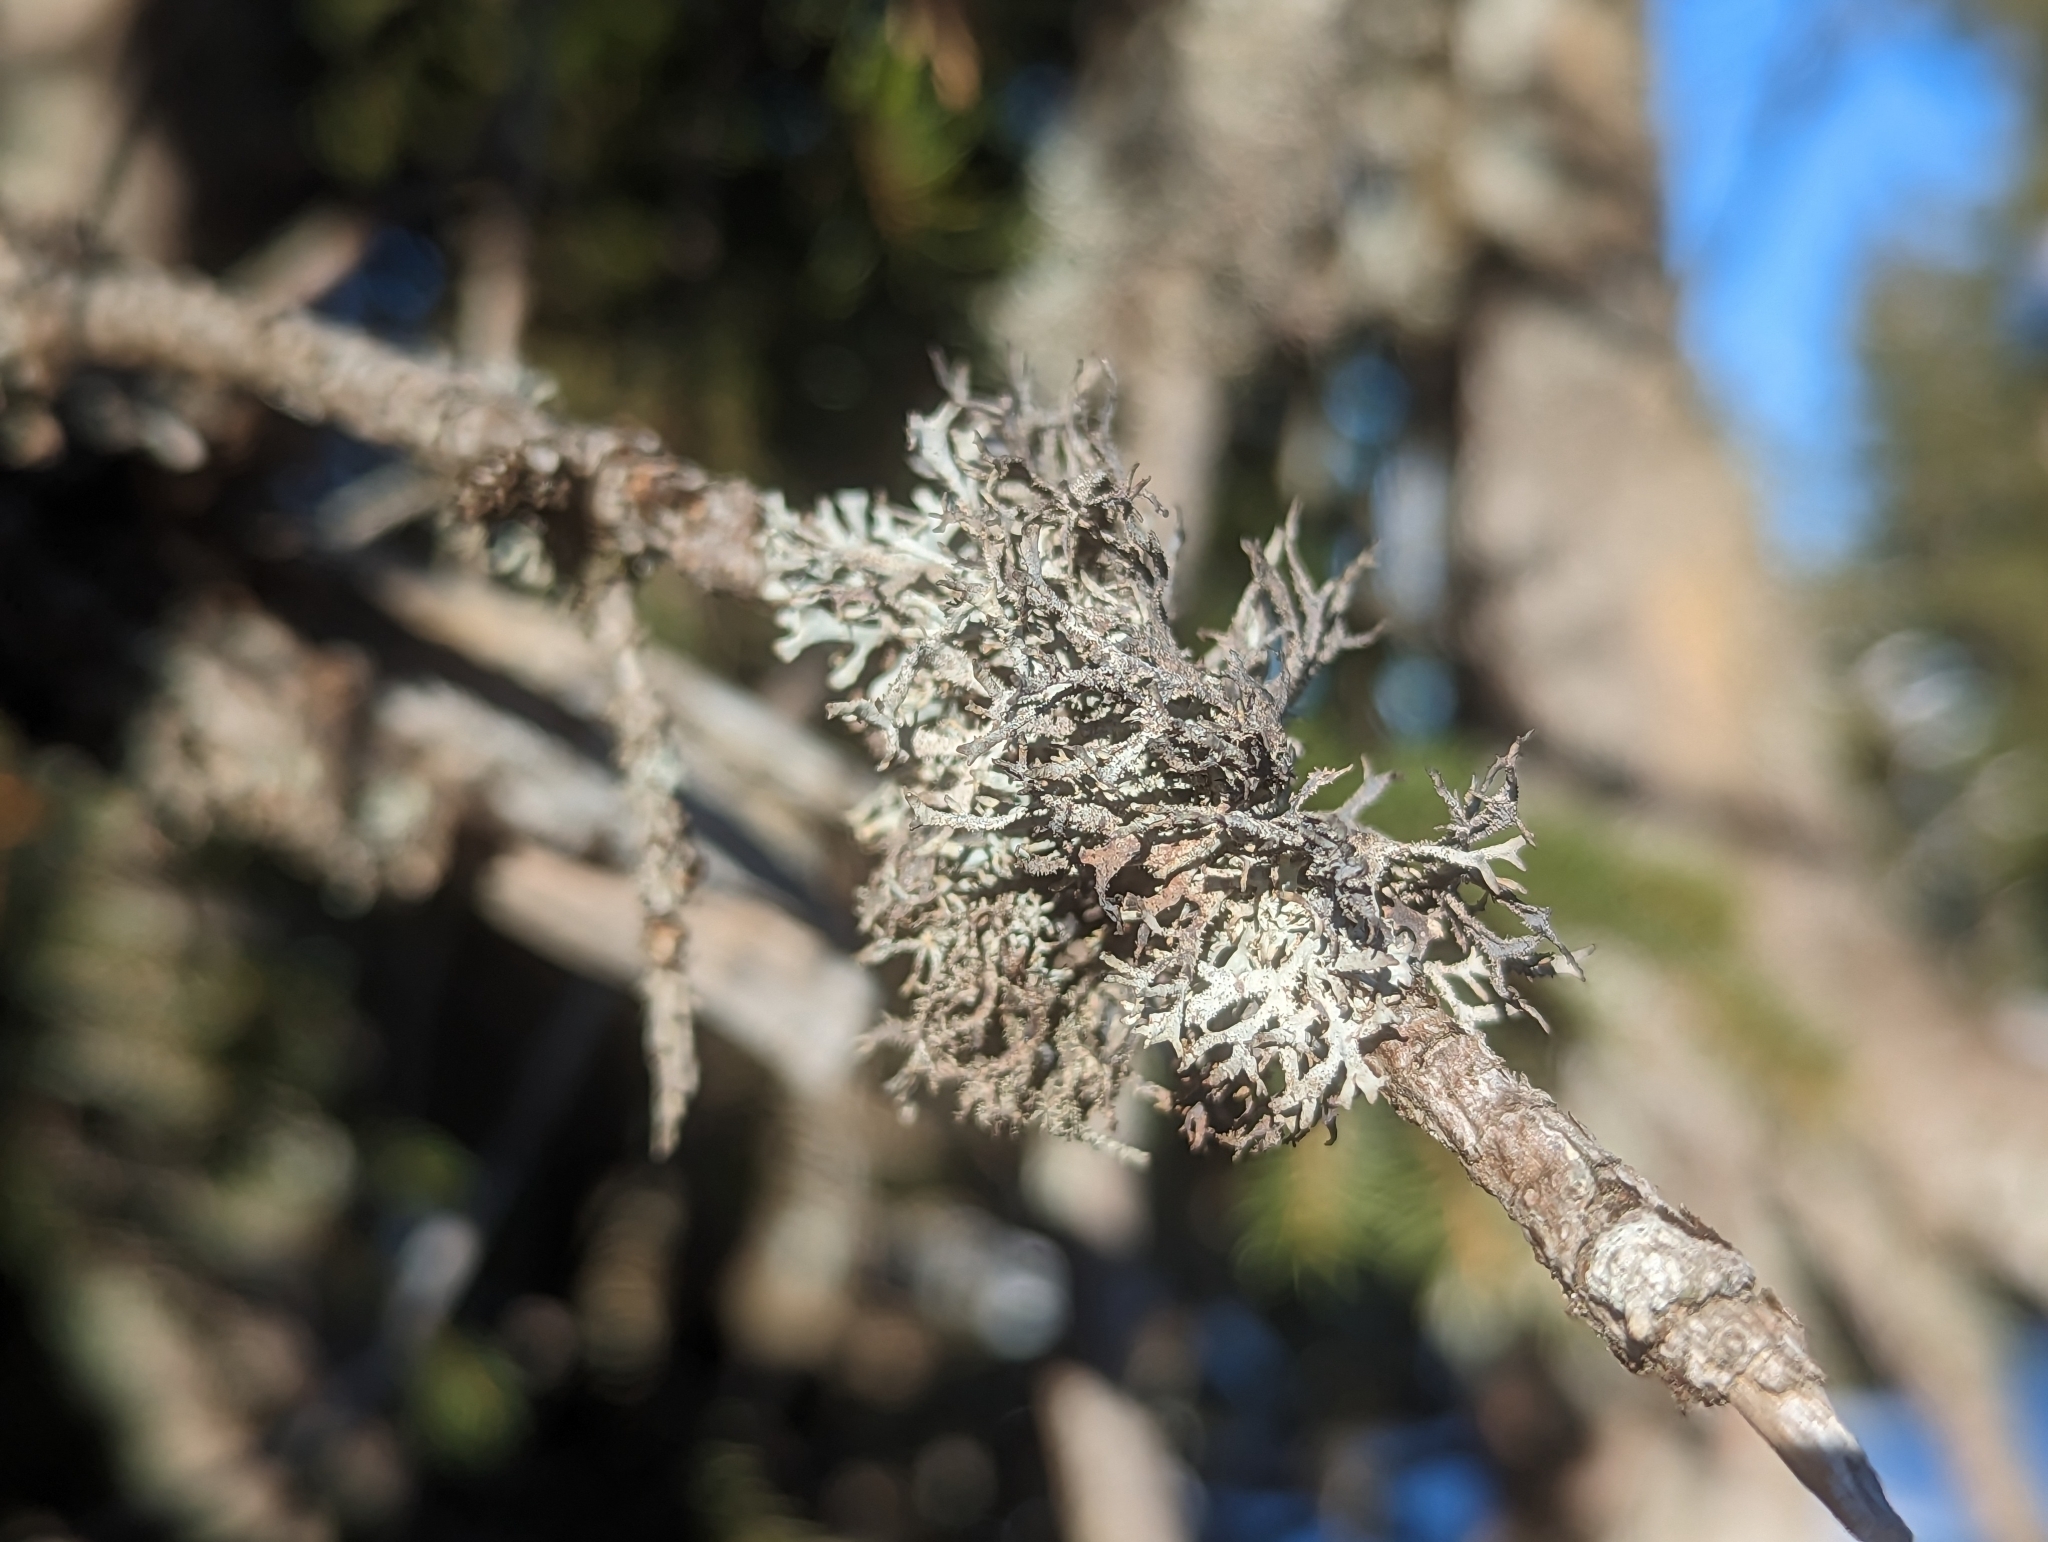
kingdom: Fungi
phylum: Ascomycota
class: Lecanoromycetes
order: Lecanorales
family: Parmeliaceae
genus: Pseudevernia
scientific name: Pseudevernia furfuracea
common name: Tree moss
